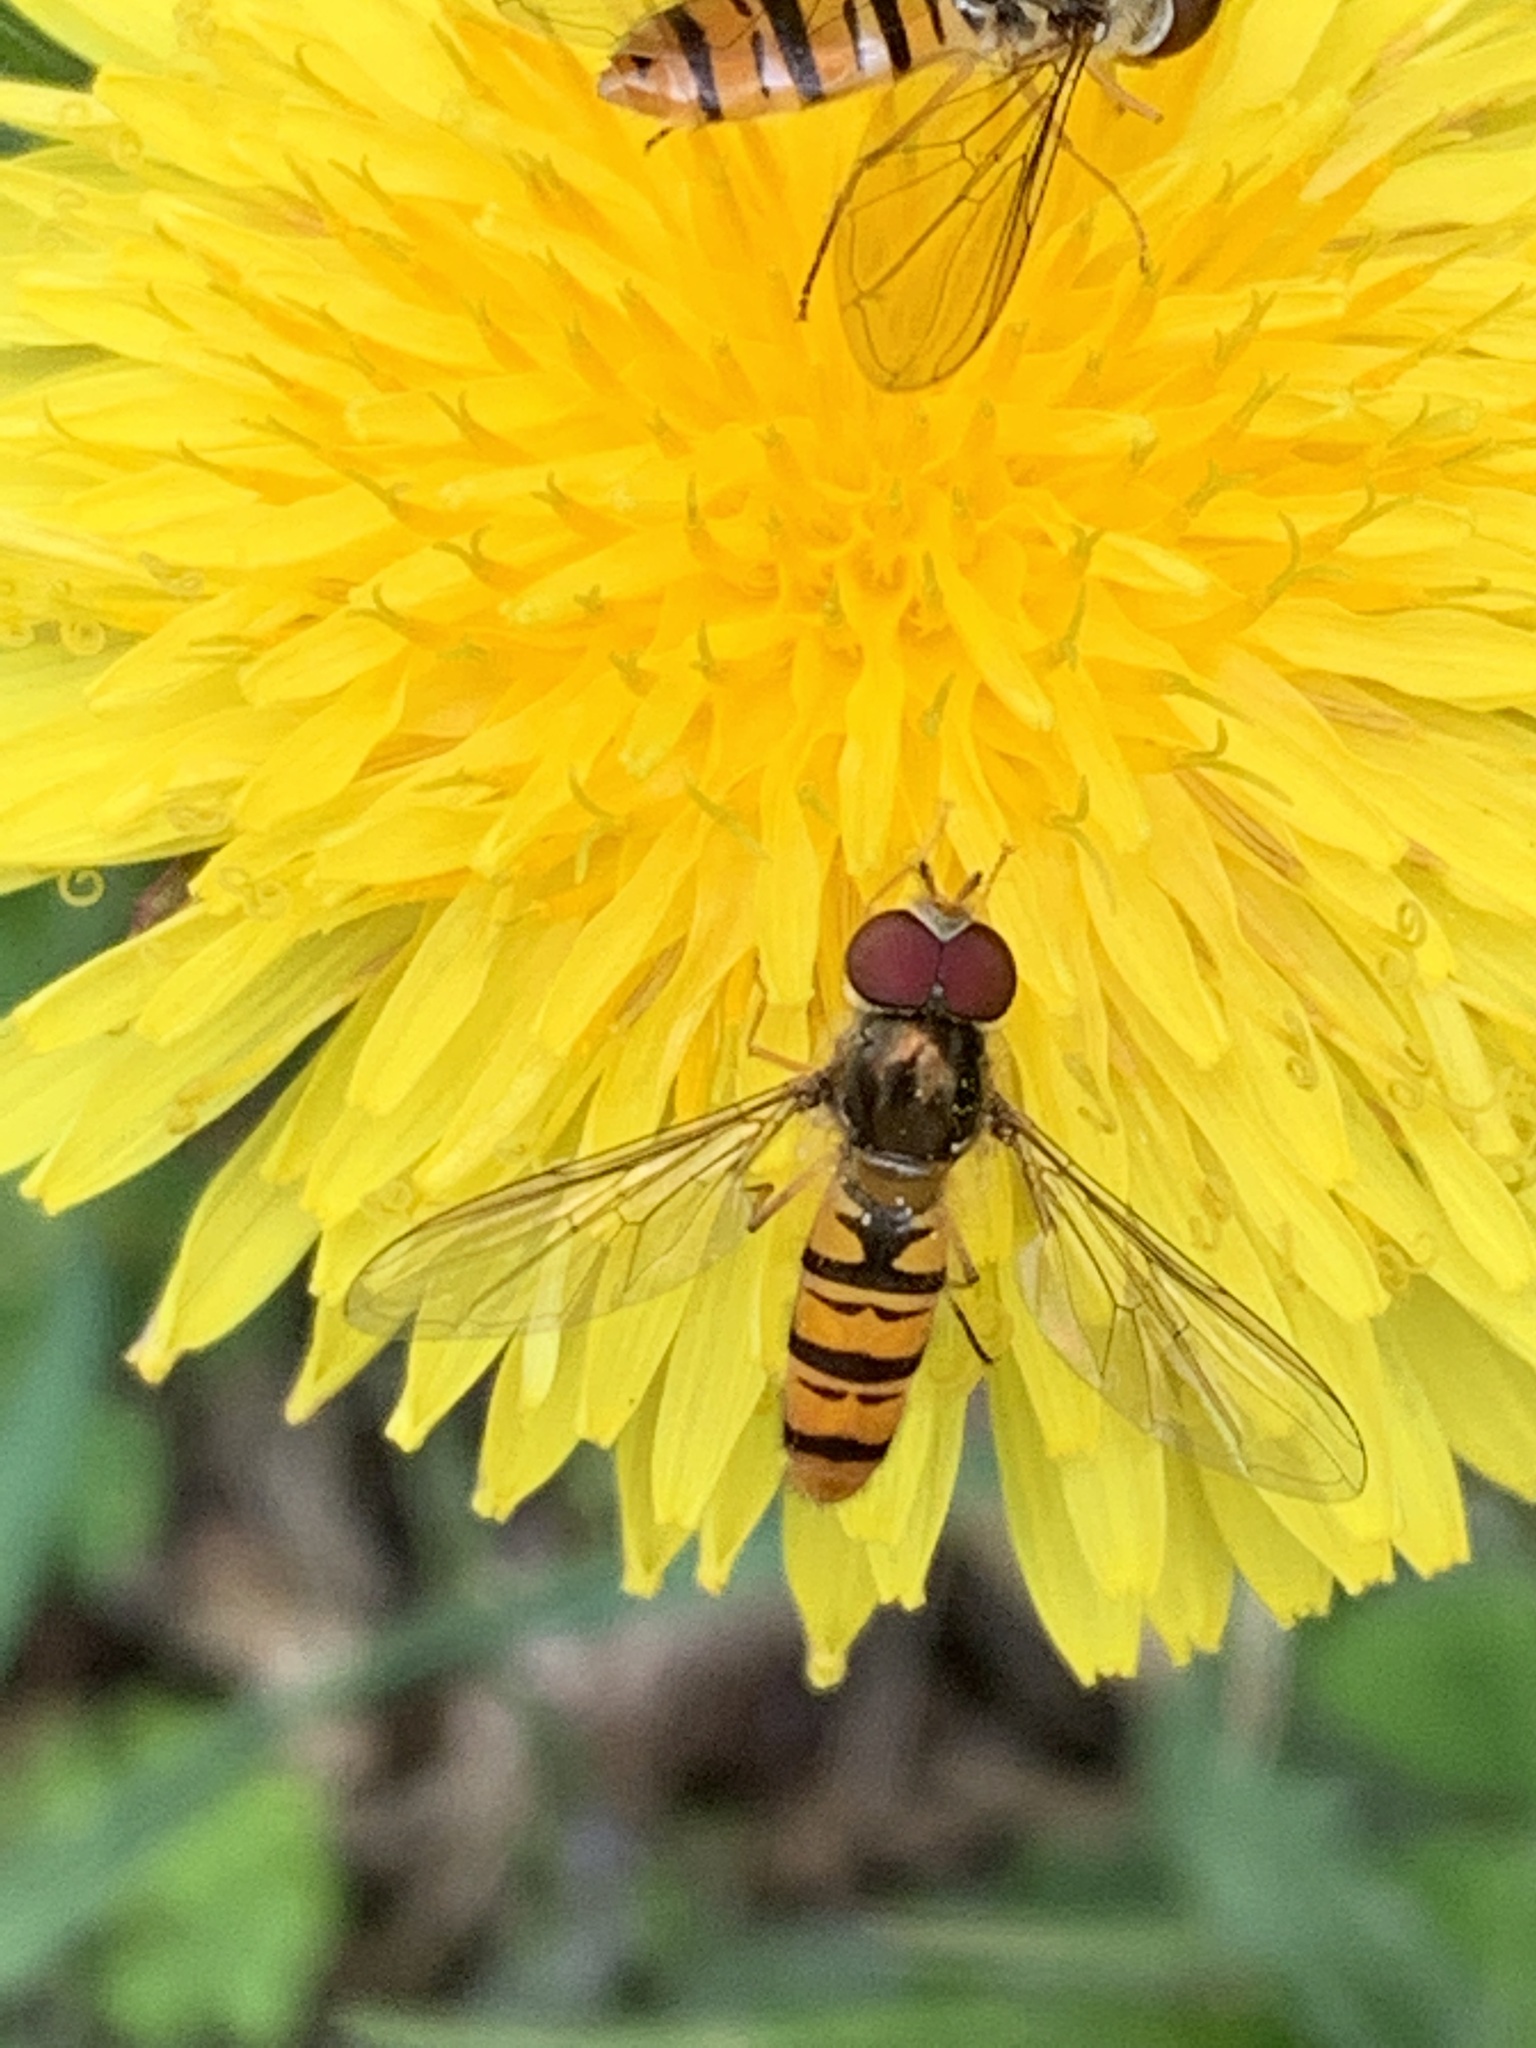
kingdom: Animalia
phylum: Arthropoda
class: Insecta
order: Diptera
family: Syrphidae
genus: Episyrphus
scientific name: Episyrphus balteatus
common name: Marmalade hoverfly
